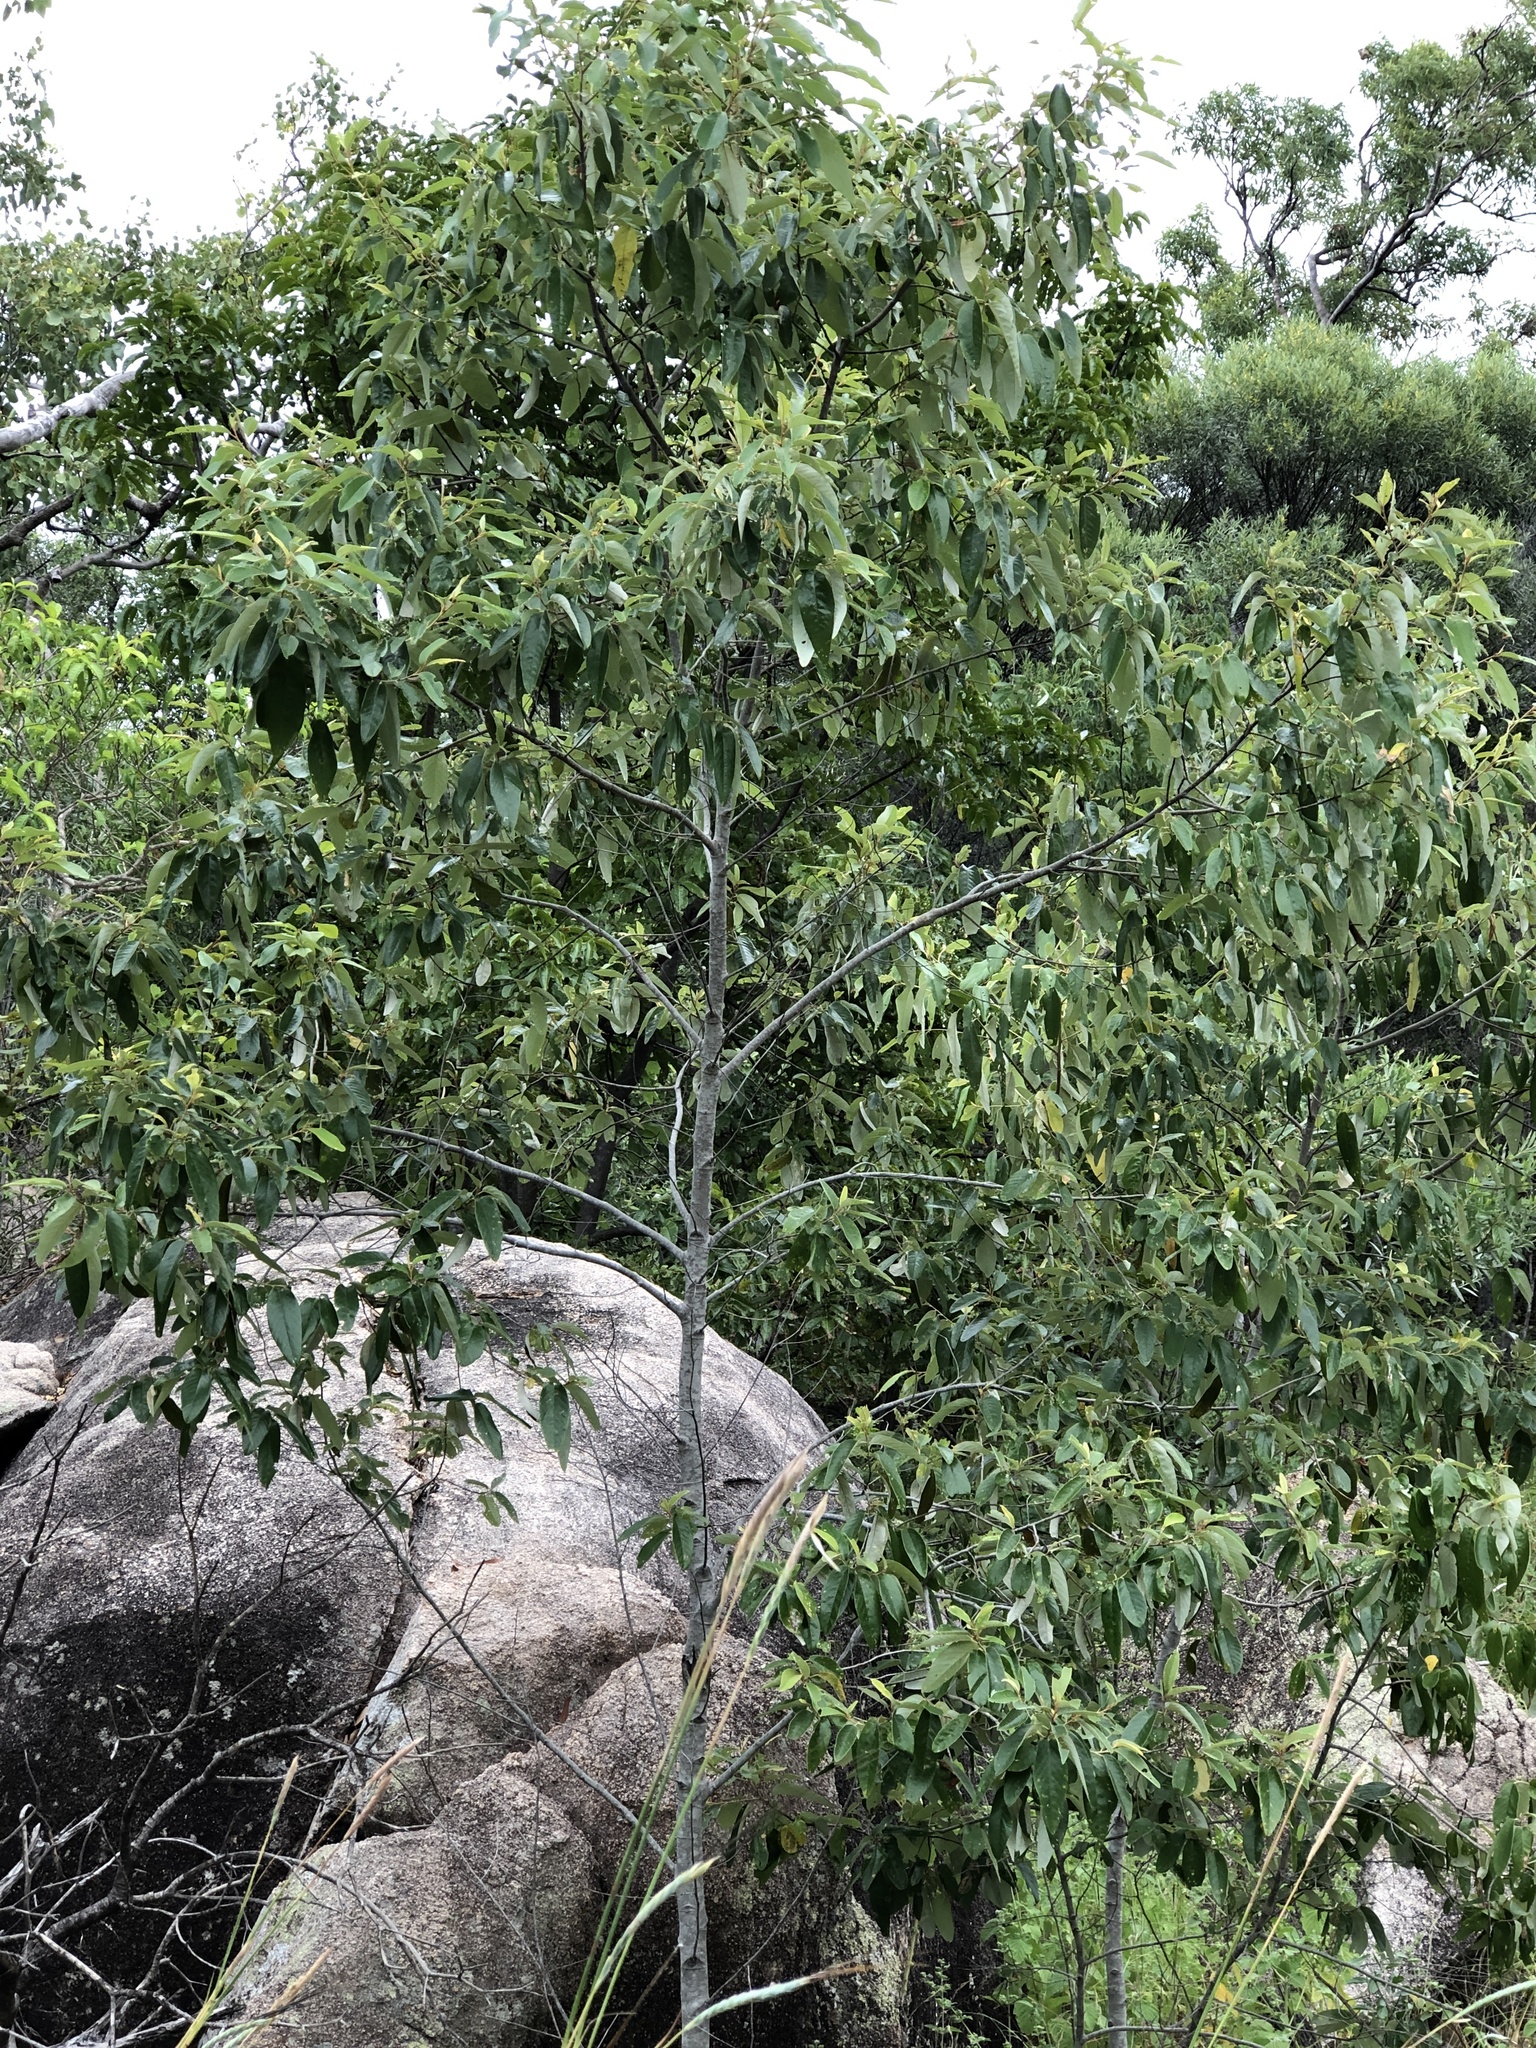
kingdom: Plantae
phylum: Tracheophyta
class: Magnoliopsida
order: Rosales
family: Rhamnaceae
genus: Alphitonia
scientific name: Alphitonia excelsa
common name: Red ash
